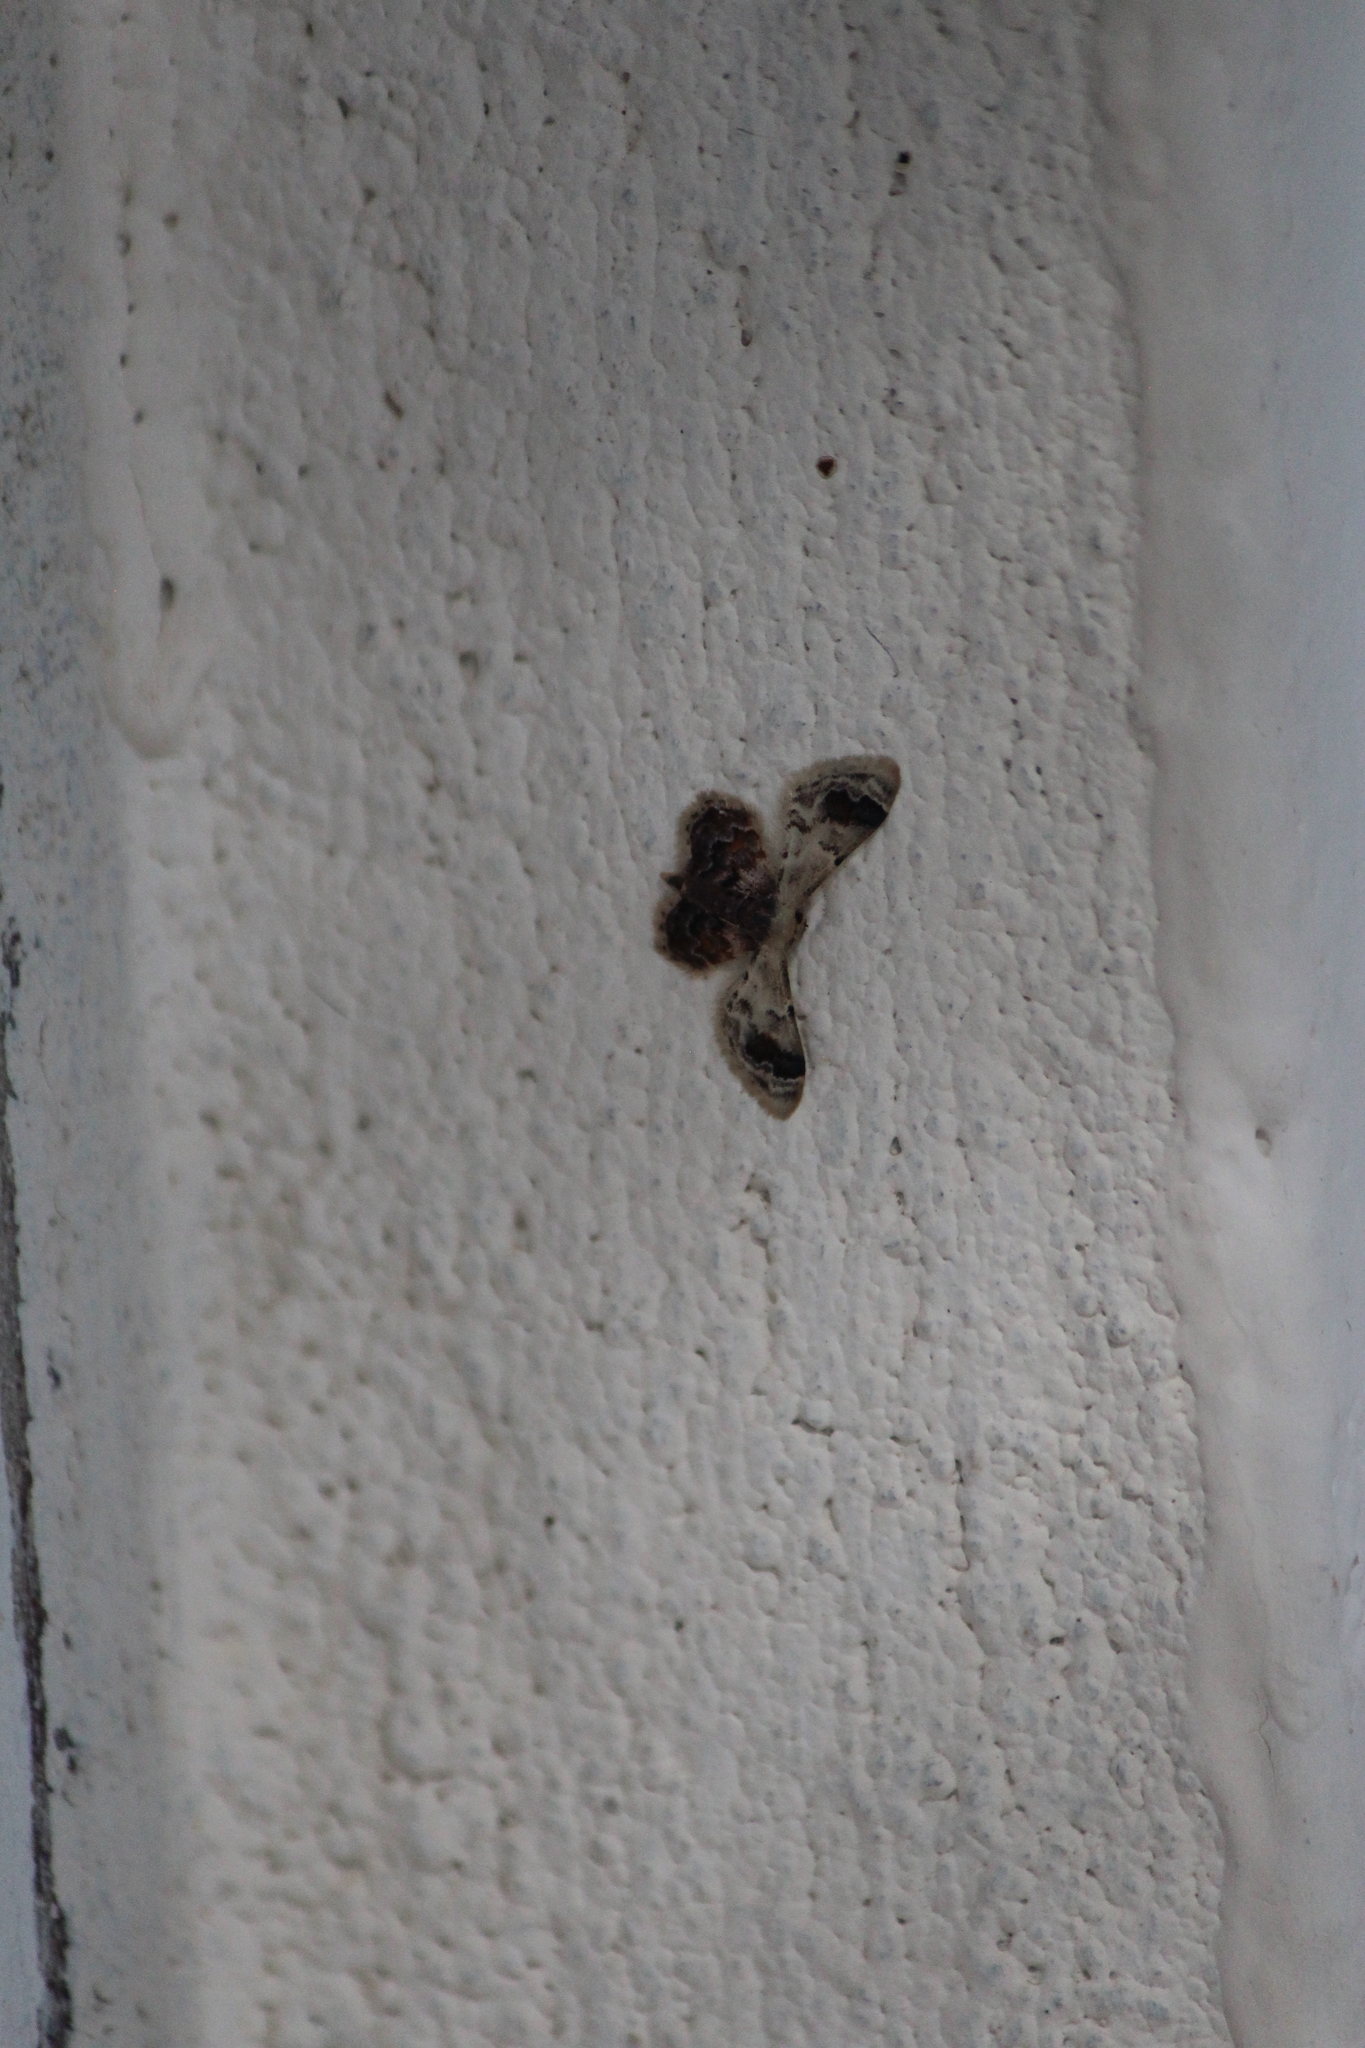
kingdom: Animalia
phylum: Arthropoda
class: Insecta
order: Lepidoptera
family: Geometridae
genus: Idaea
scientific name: Idaea asceta
